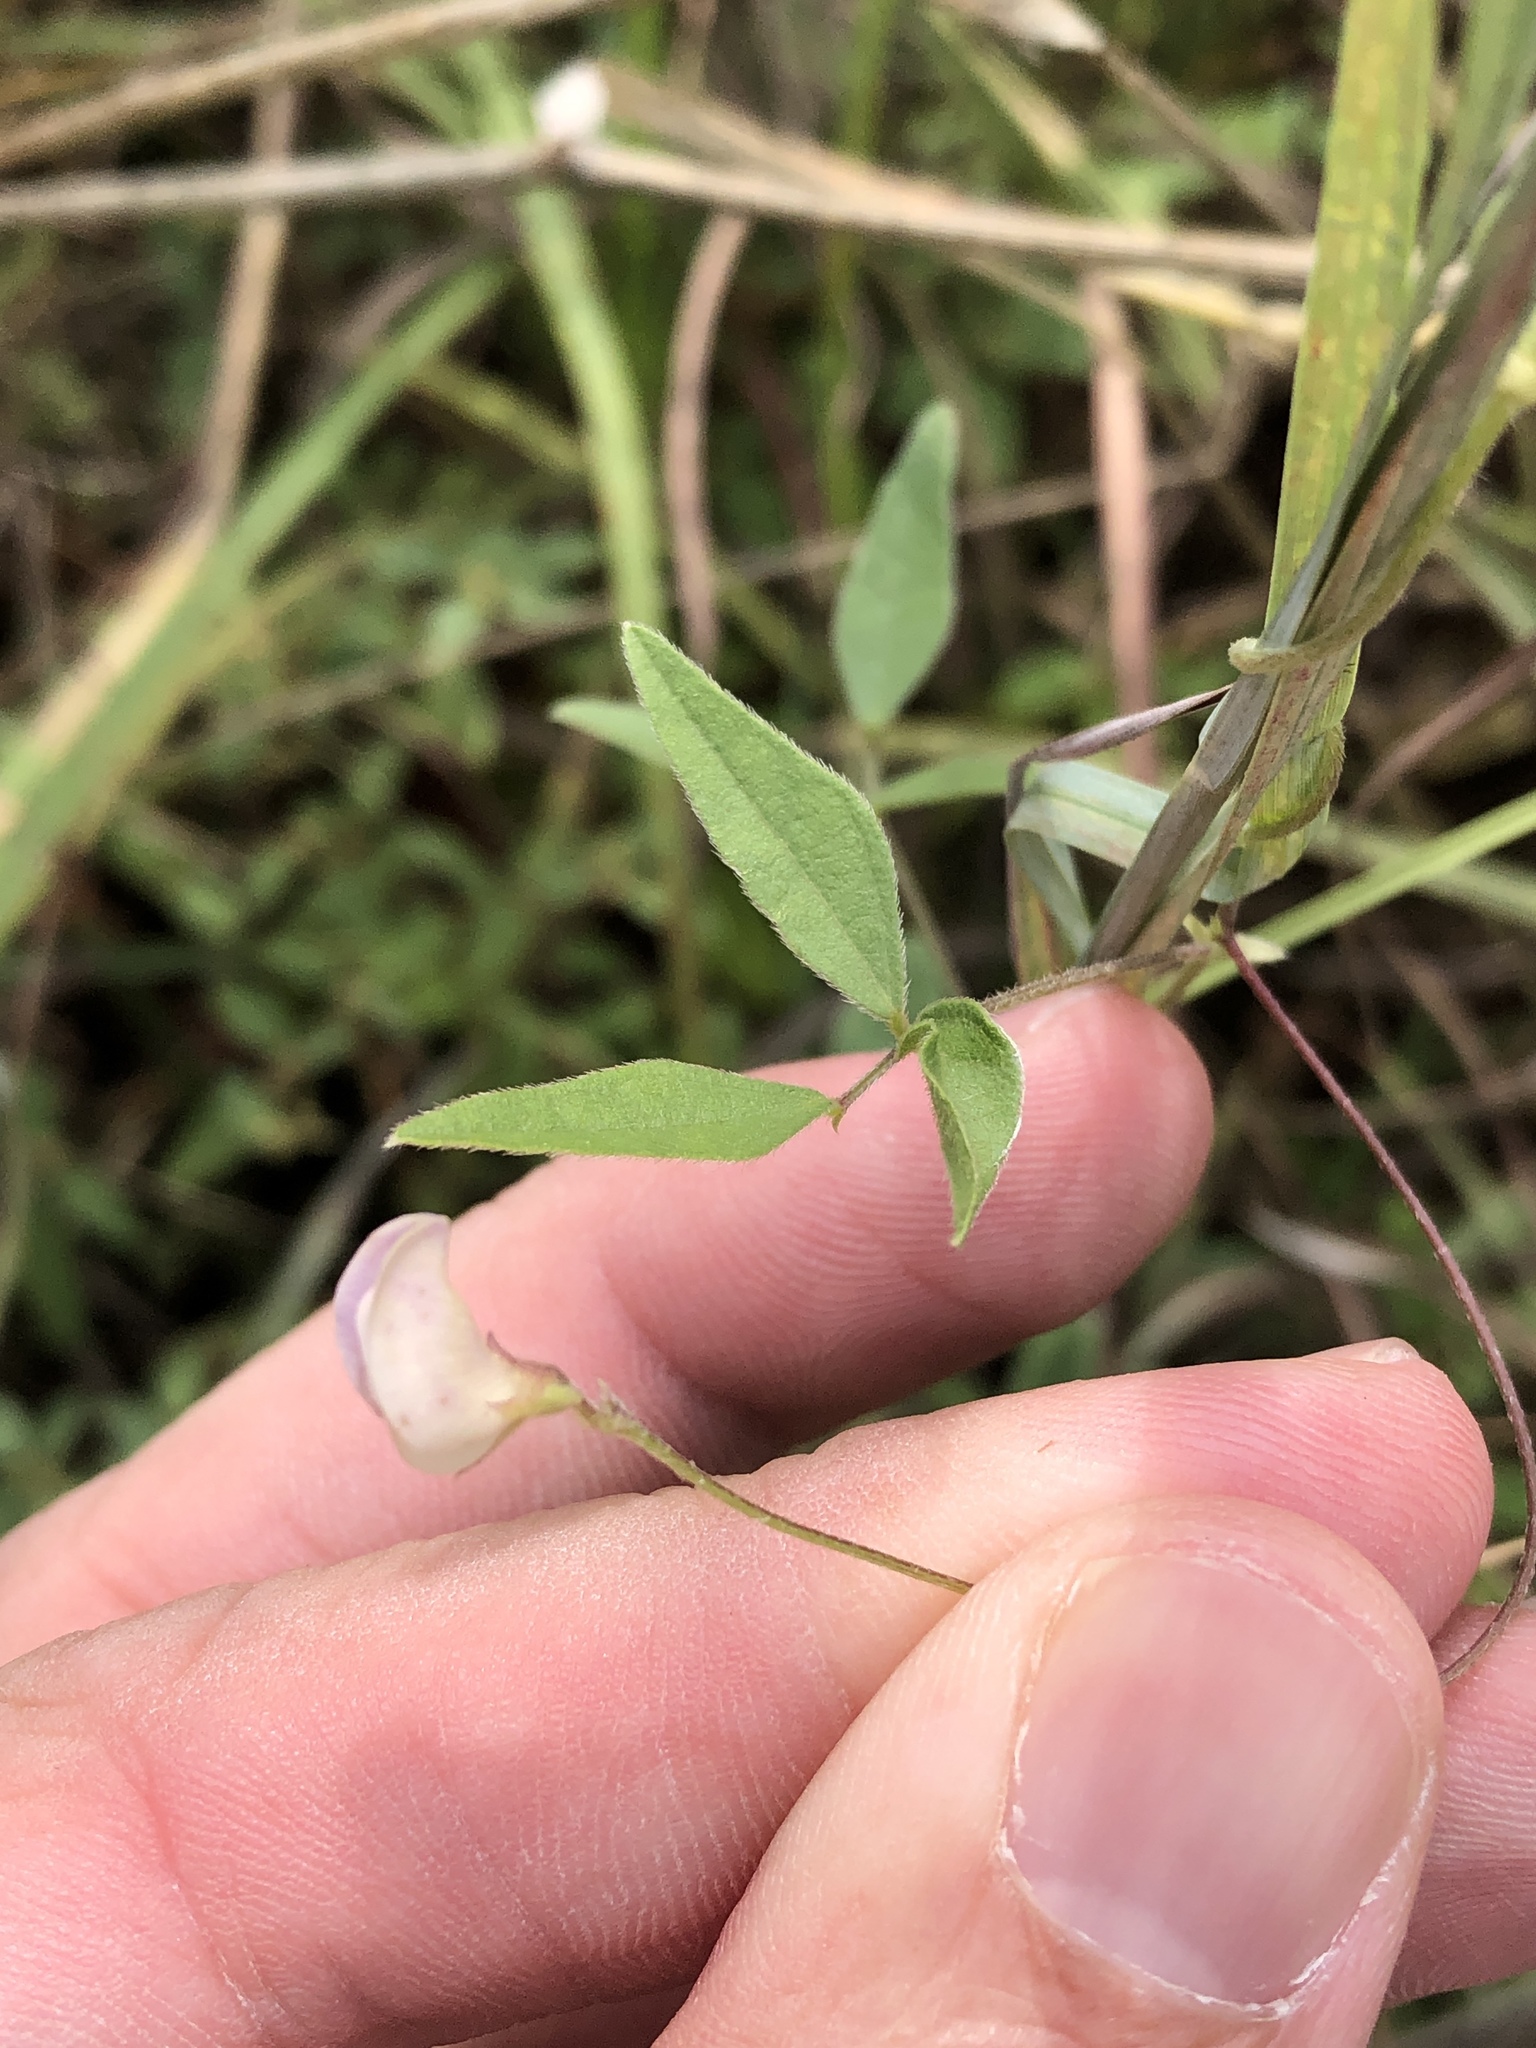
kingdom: Plantae
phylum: Tracheophyta
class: Magnoliopsida
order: Fabales
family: Fabaceae
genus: Strophostyles
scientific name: Strophostyles leiosperma
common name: Smooth-seed wild bean
